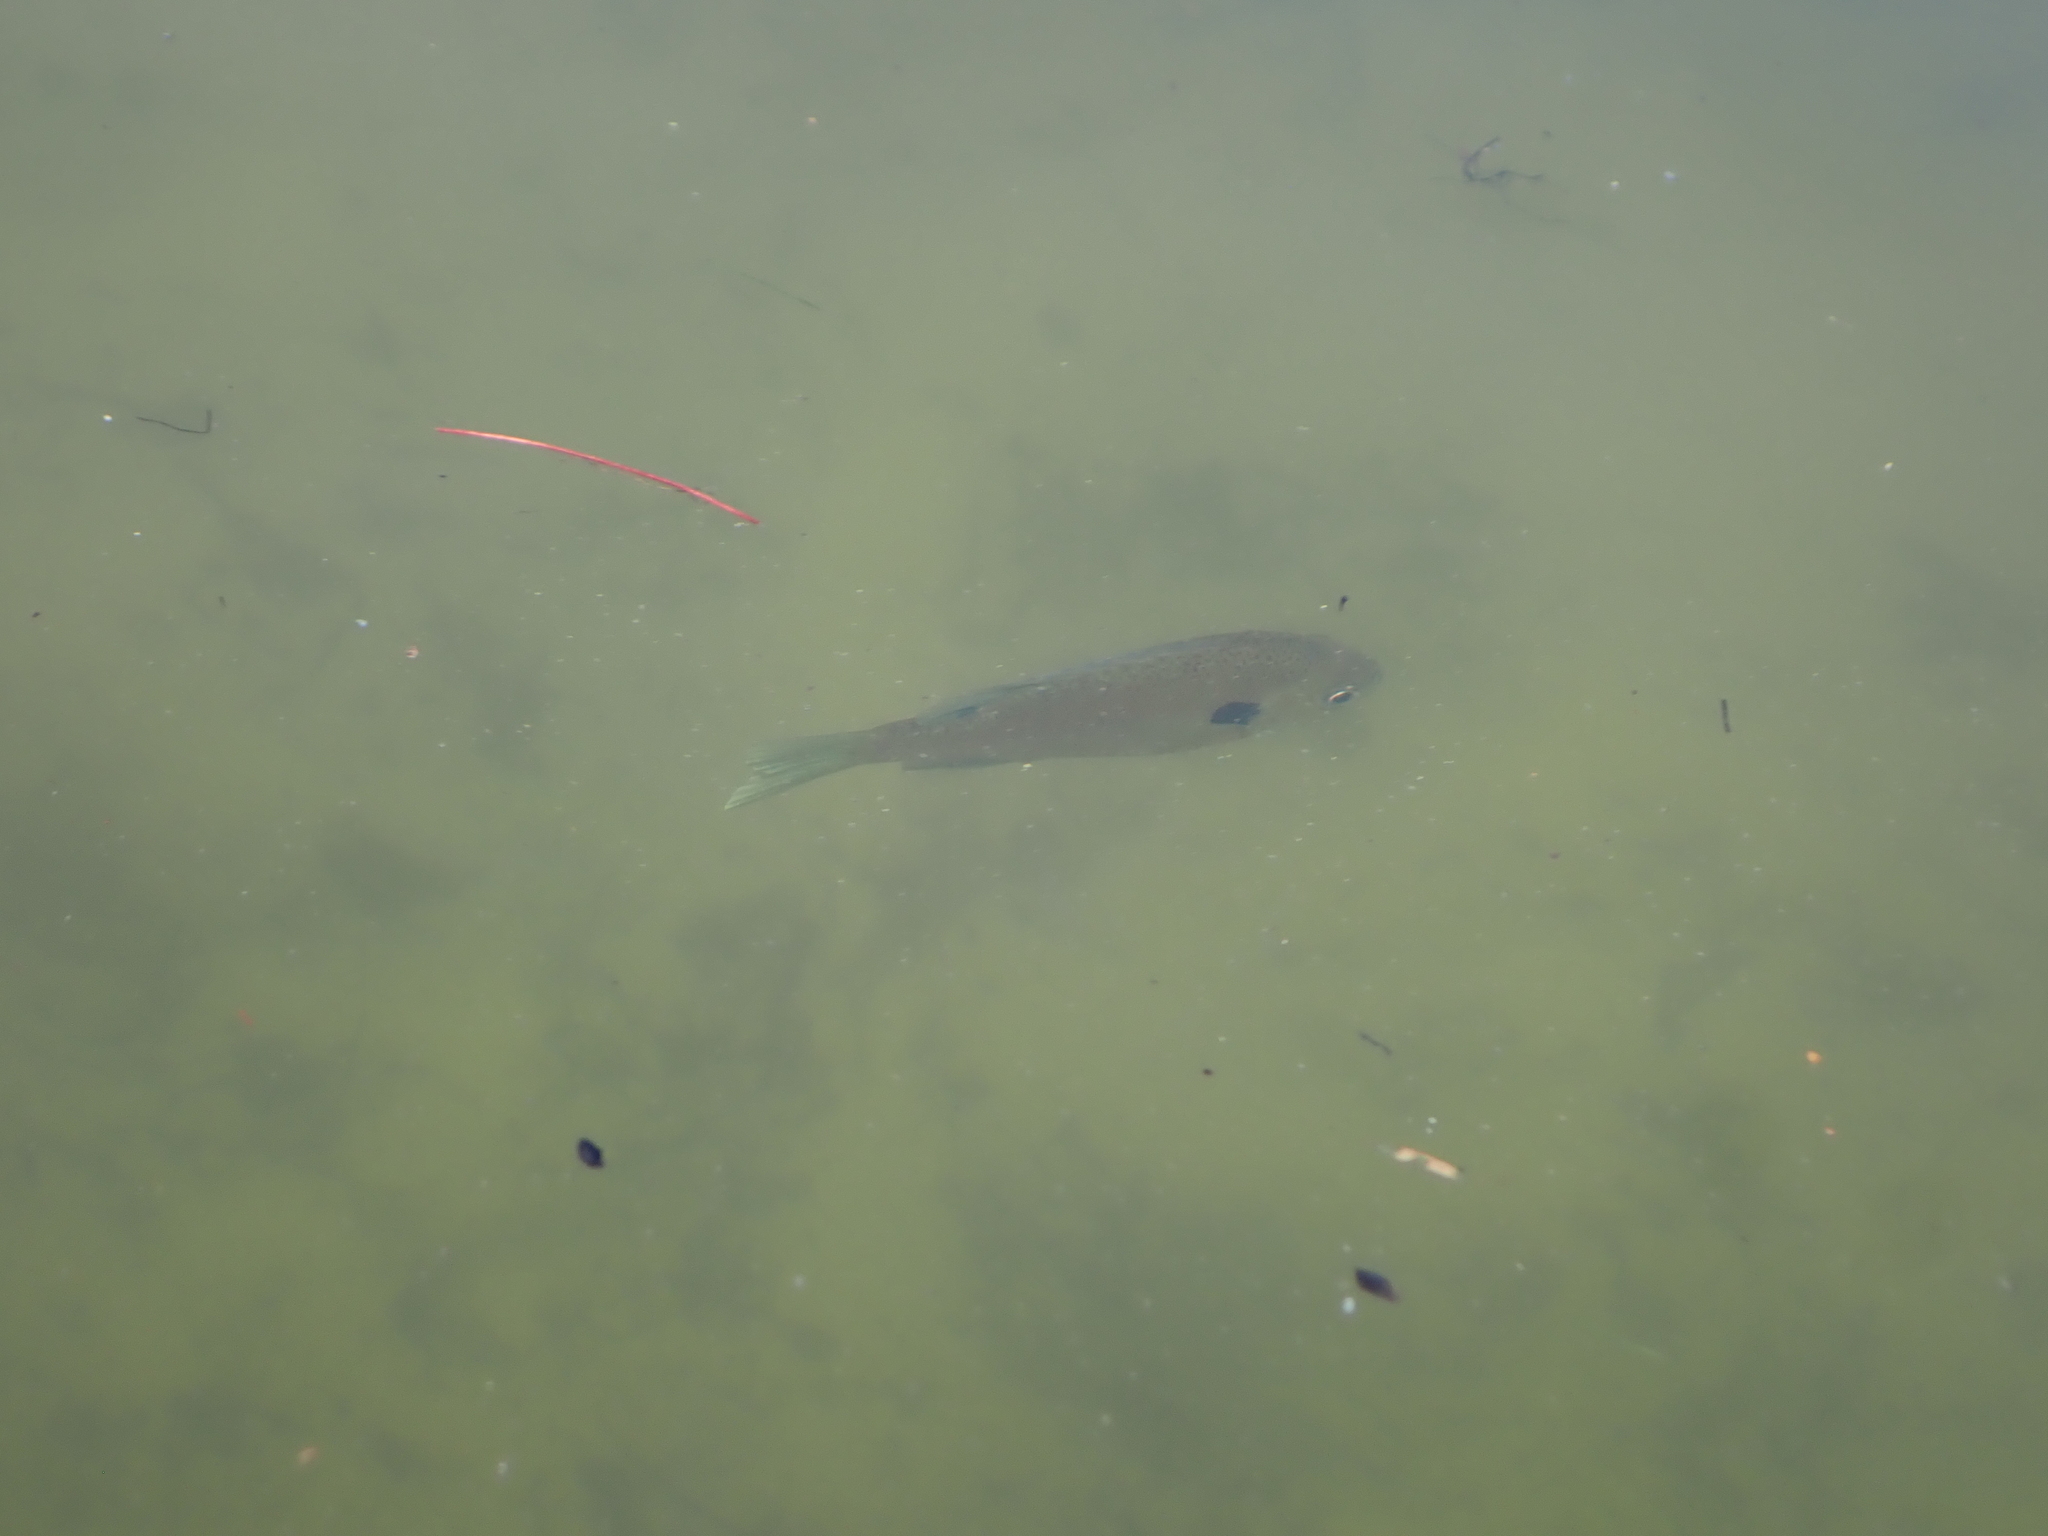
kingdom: Animalia
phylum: Chordata
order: Perciformes
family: Centrarchidae
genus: Lepomis
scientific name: Lepomis macrochirus
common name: Bluegill
